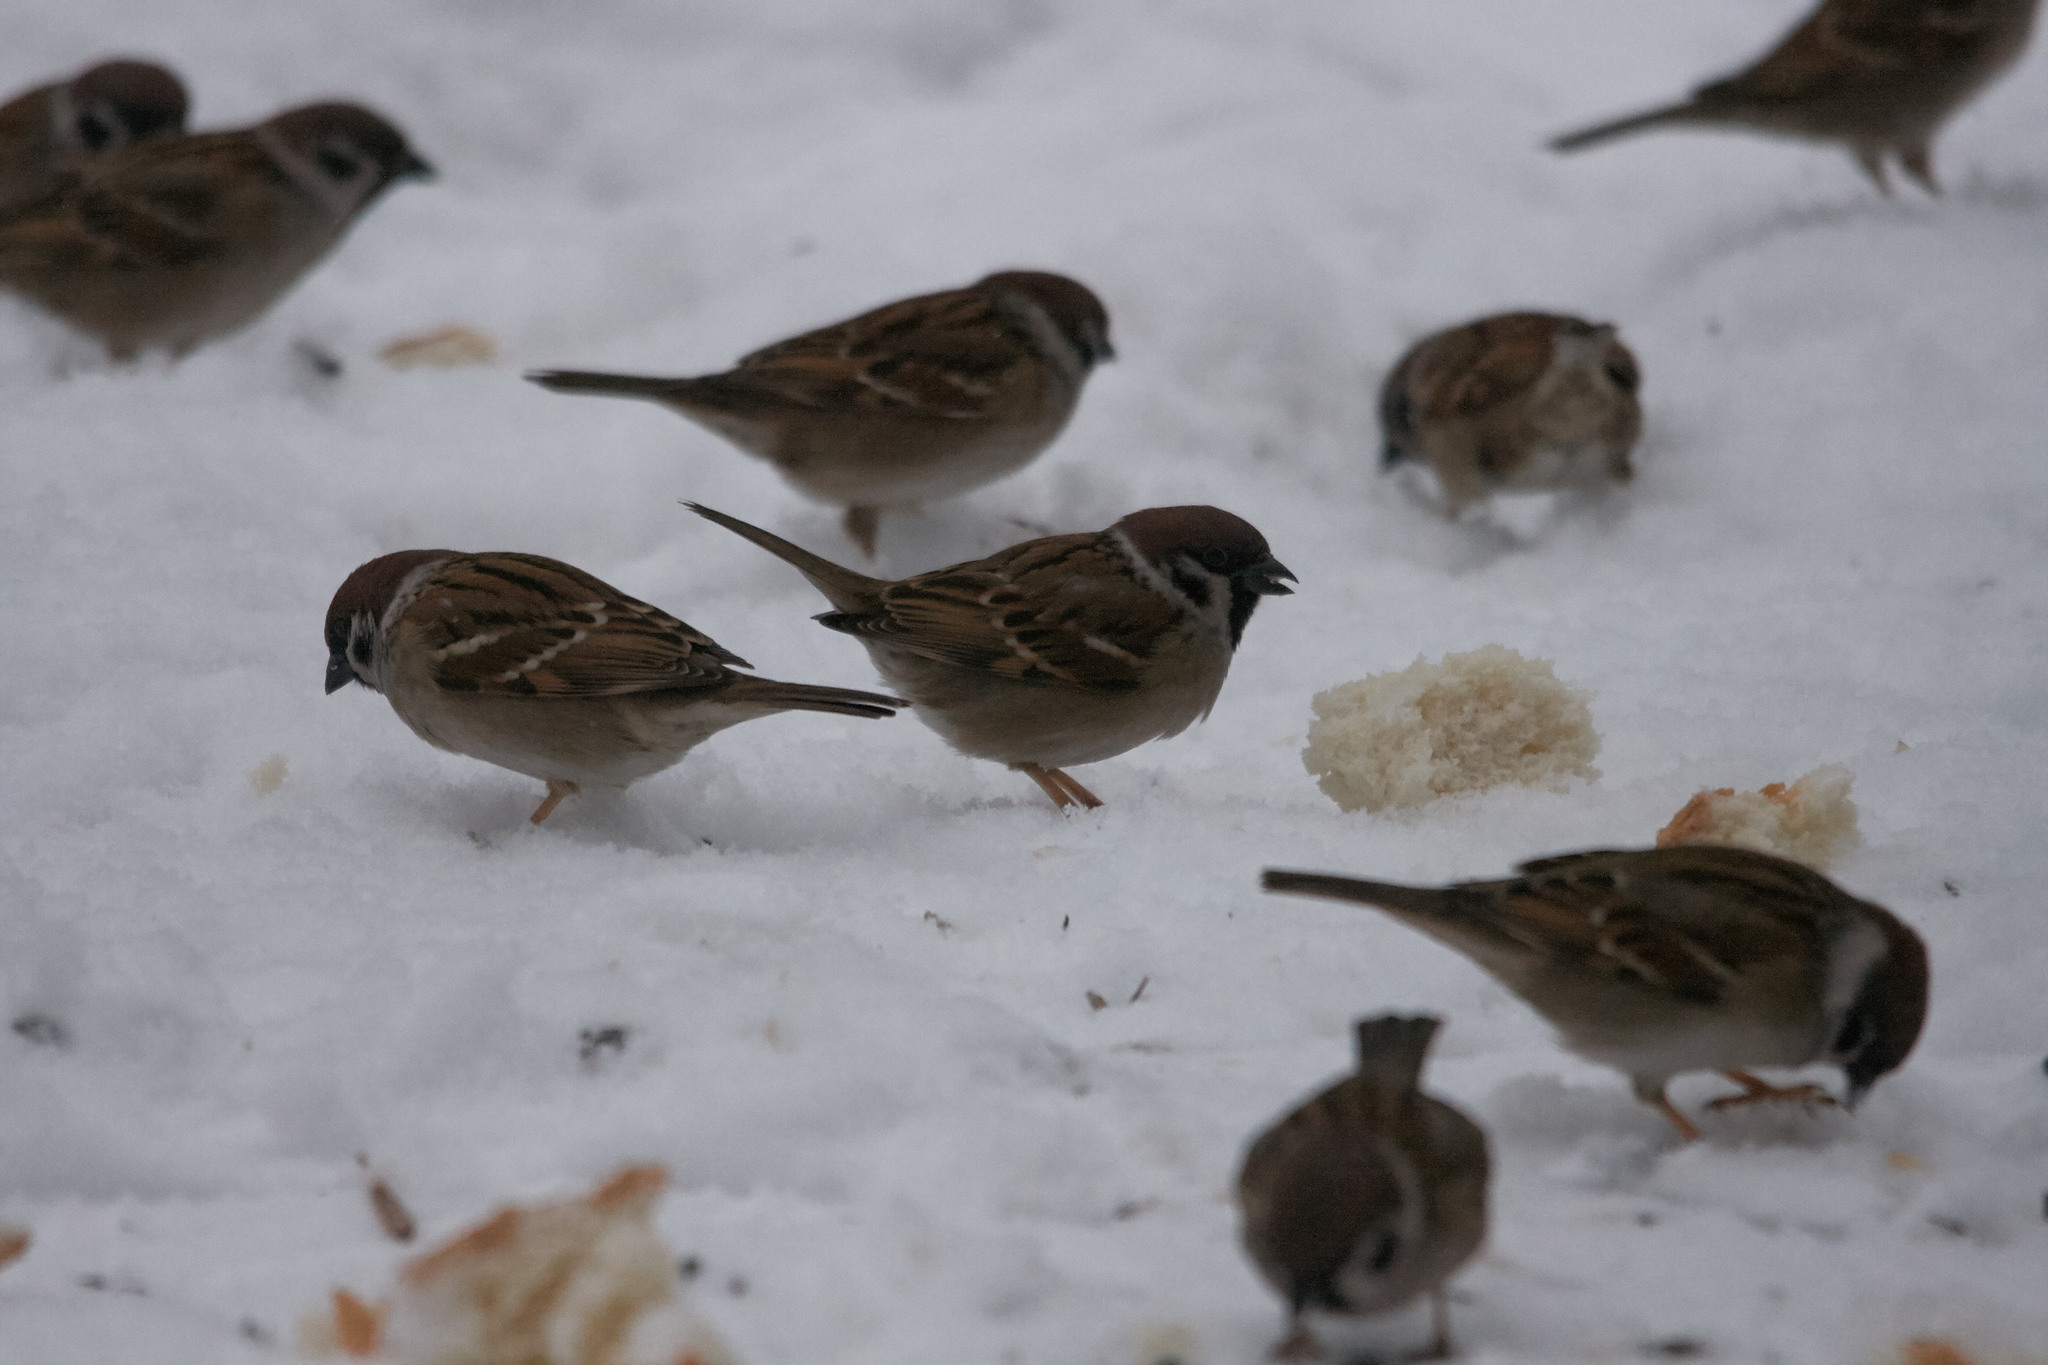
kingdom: Animalia
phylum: Chordata
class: Aves
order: Passeriformes
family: Passeridae
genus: Passer
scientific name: Passer montanus
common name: Eurasian tree sparrow
